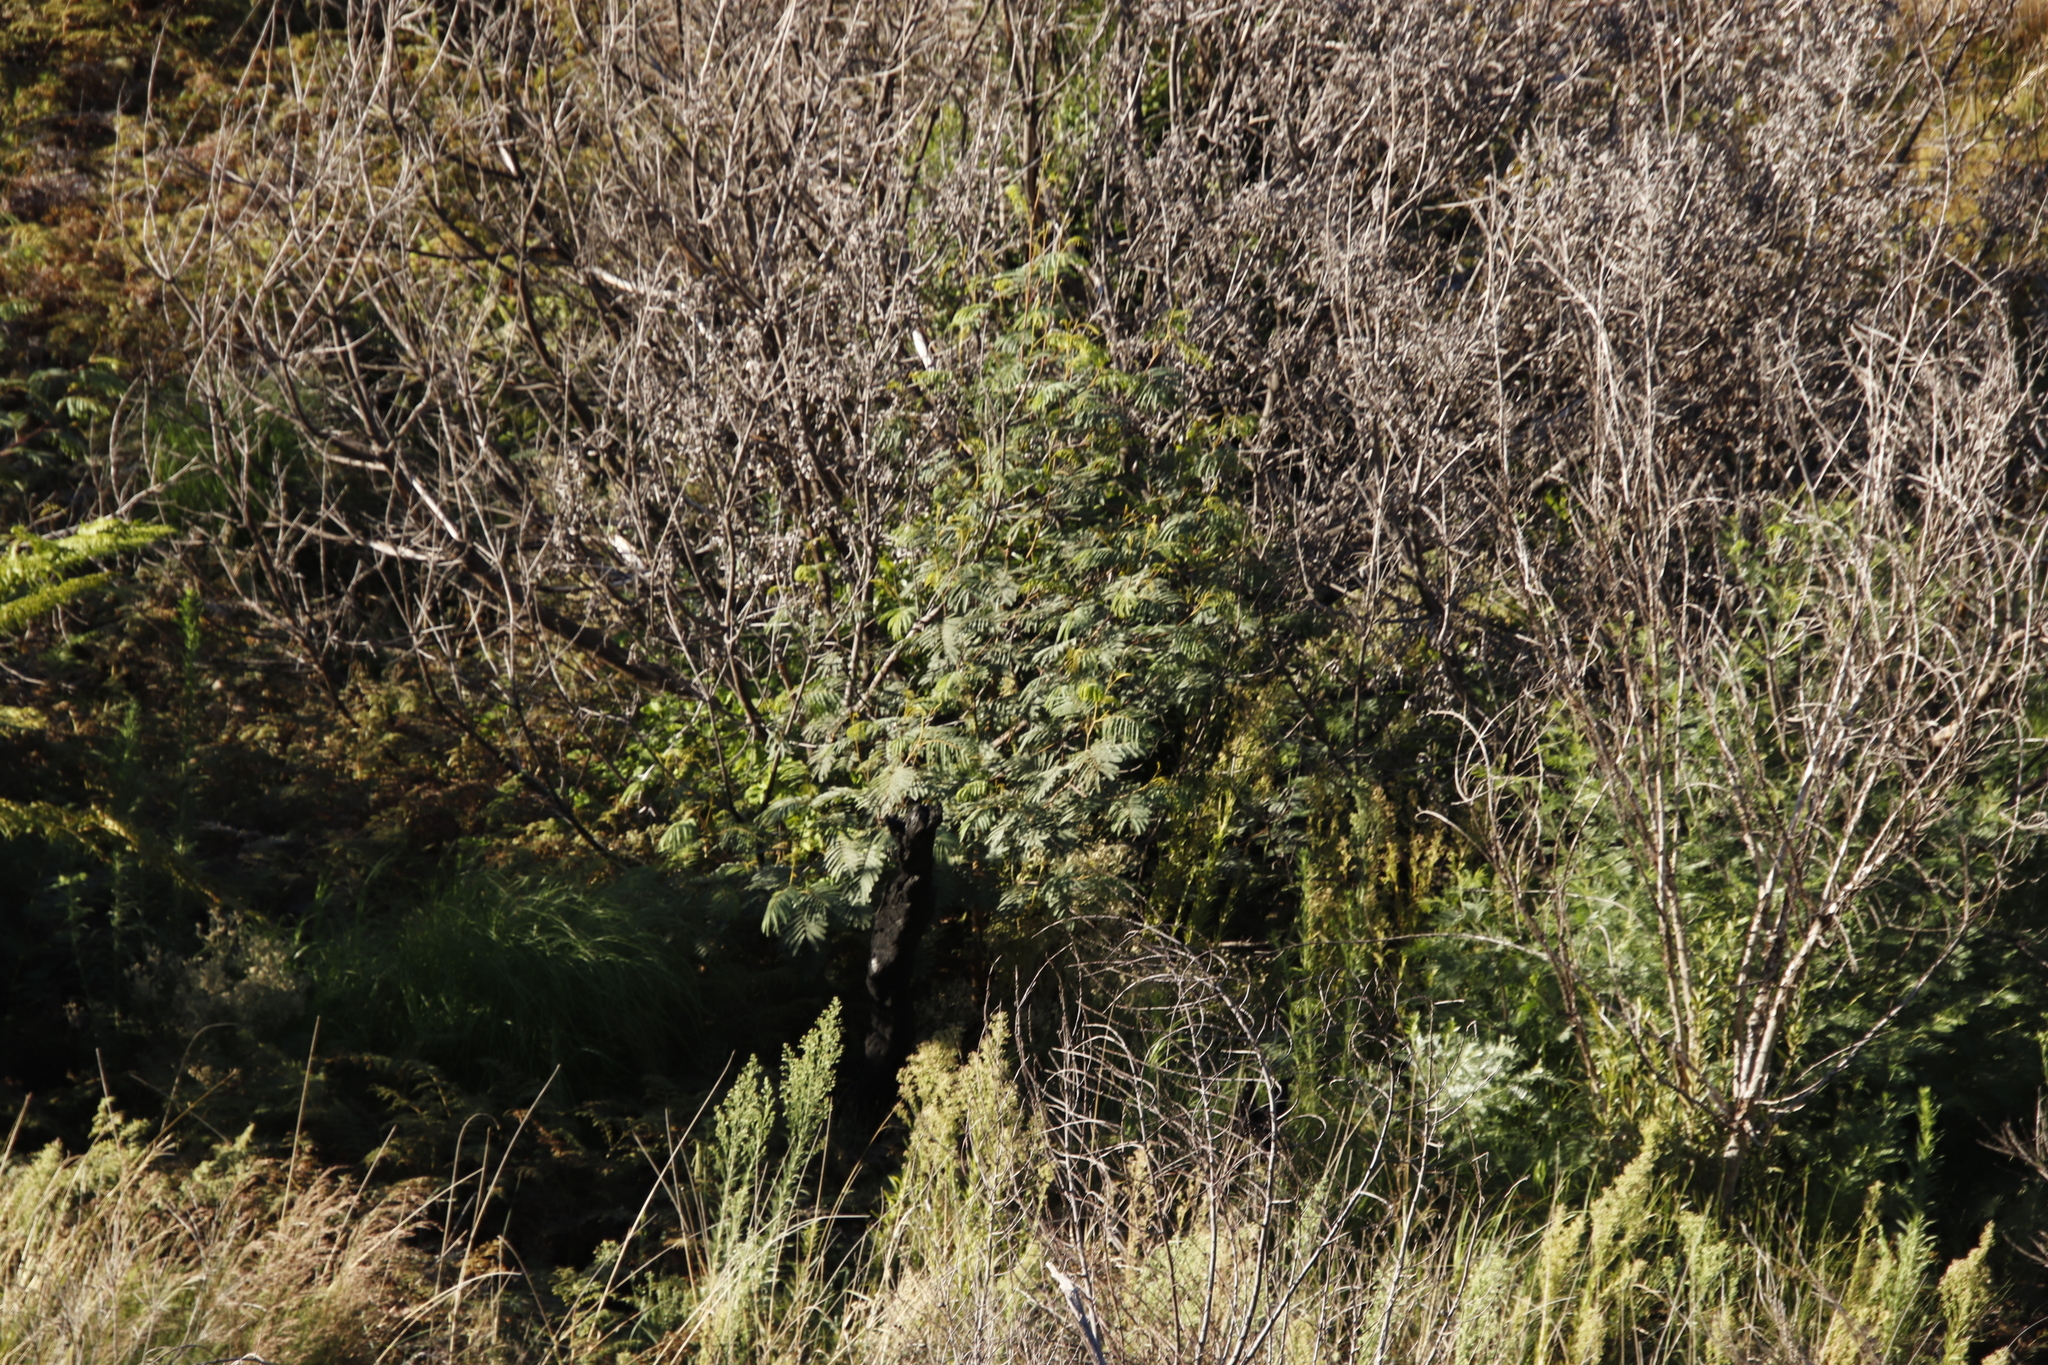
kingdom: Plantae
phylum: Tracheophyta
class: Magnoliopsida
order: Fabales
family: Fabaceae
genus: Paraserianthes
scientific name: Paraserianthes lophantha
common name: Plume albizia
